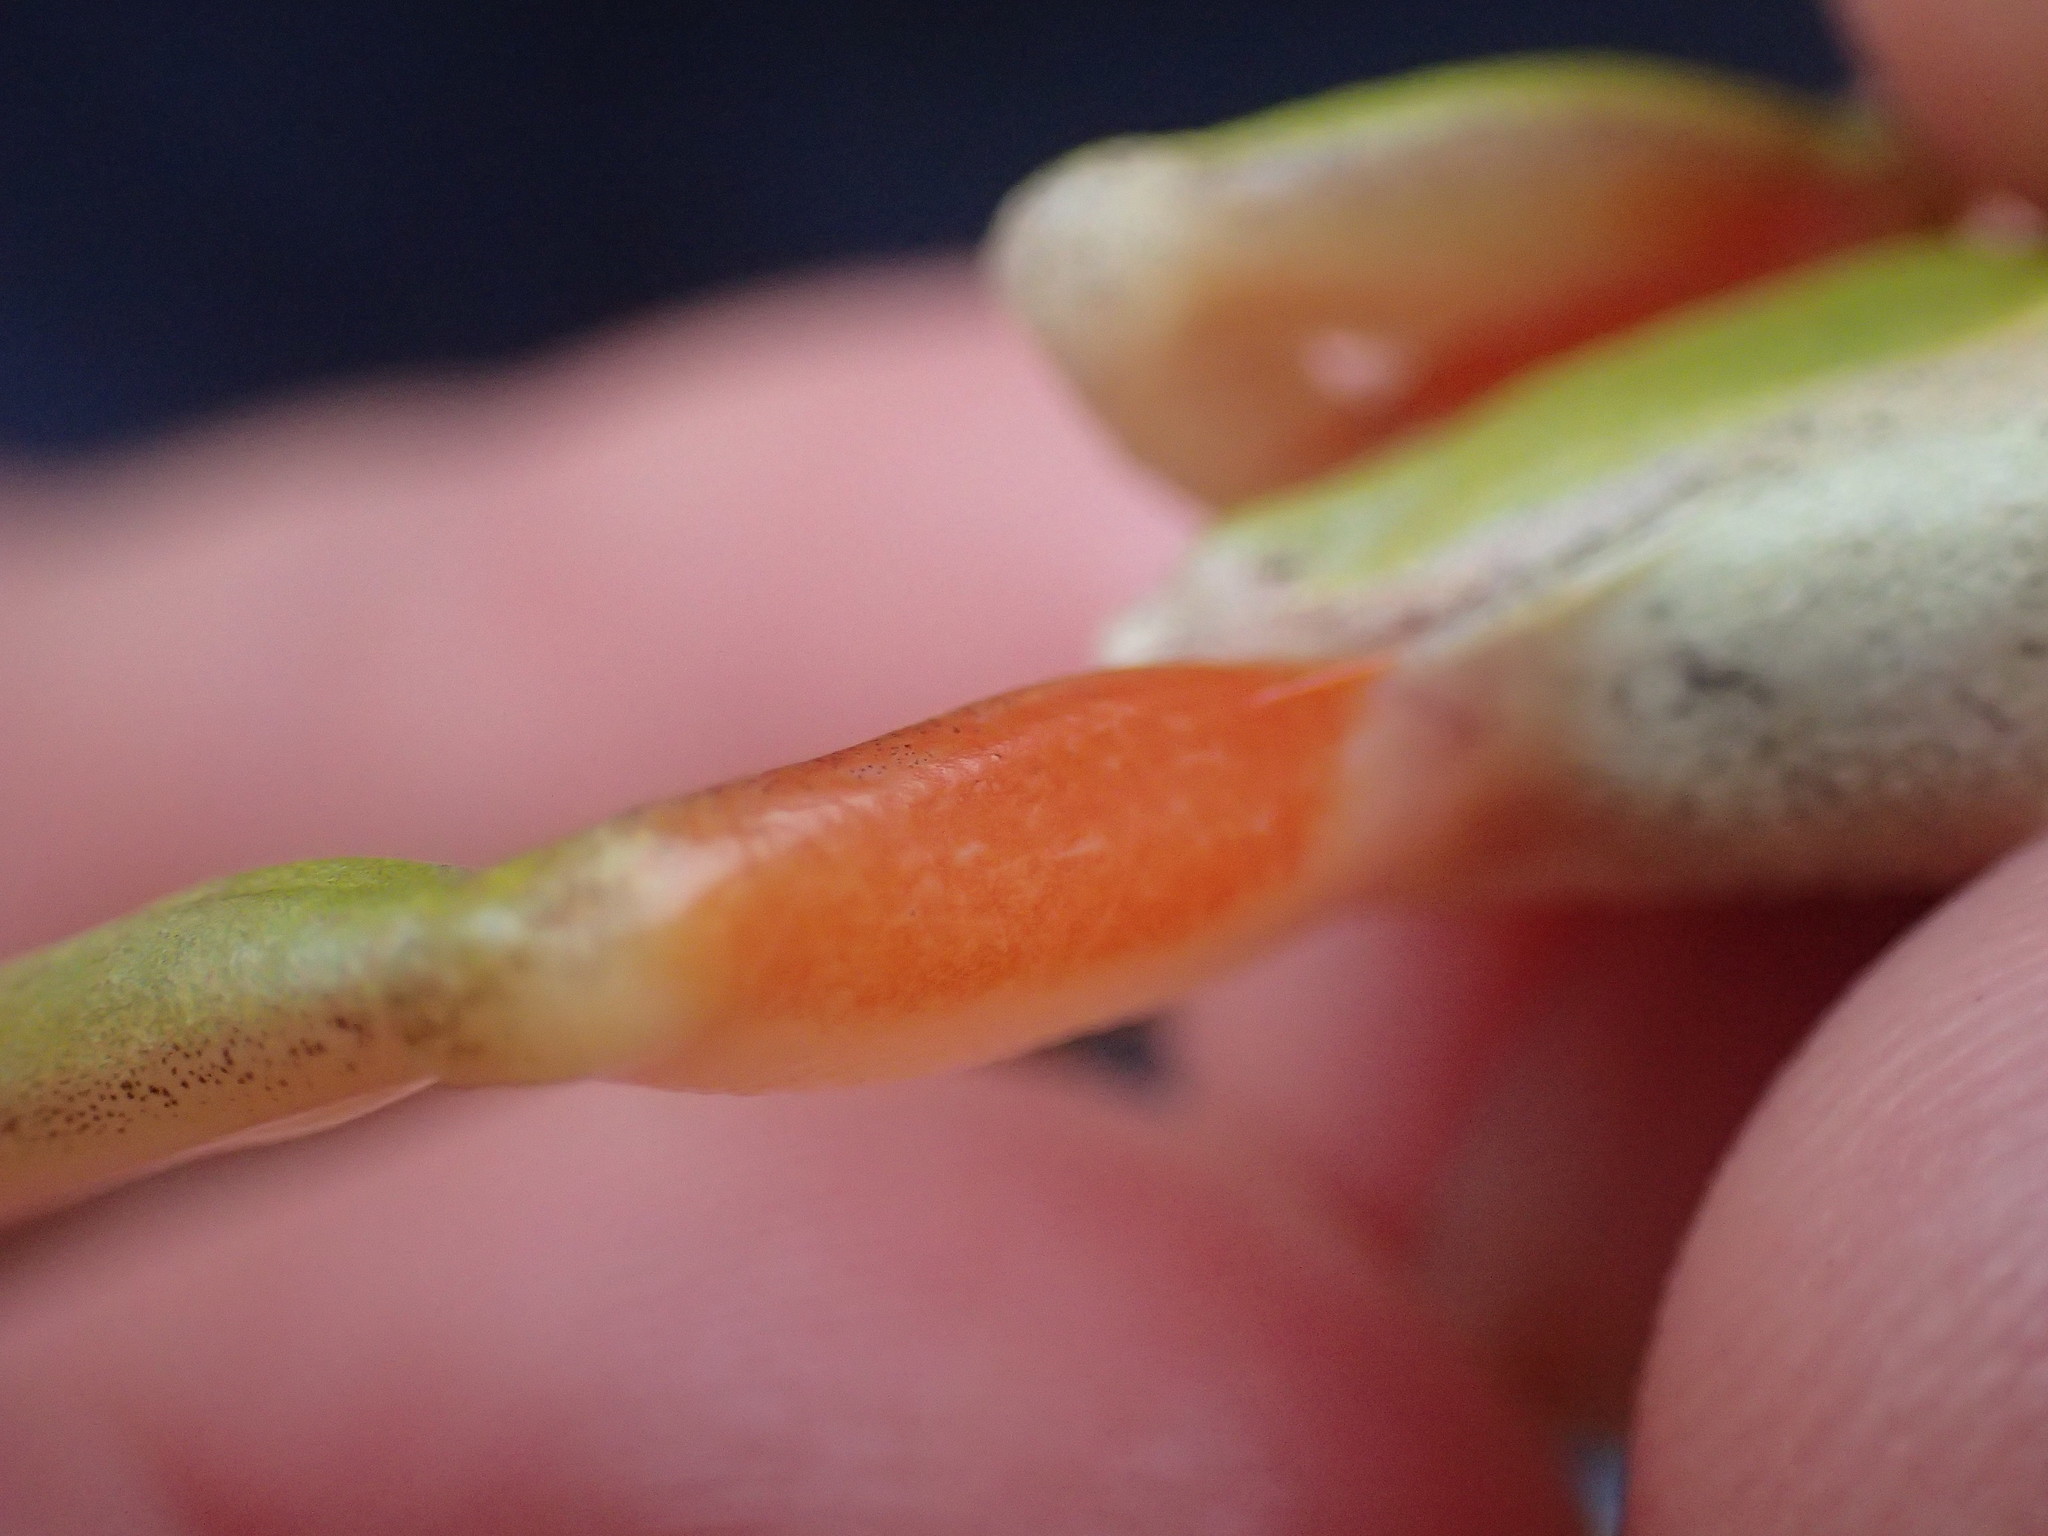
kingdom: Animalia
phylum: Chordata
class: Amphibia
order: Anura
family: Hyperoliidae
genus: Hyperolius
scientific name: Hyperolius kivuensis
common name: Kivu reed frog
